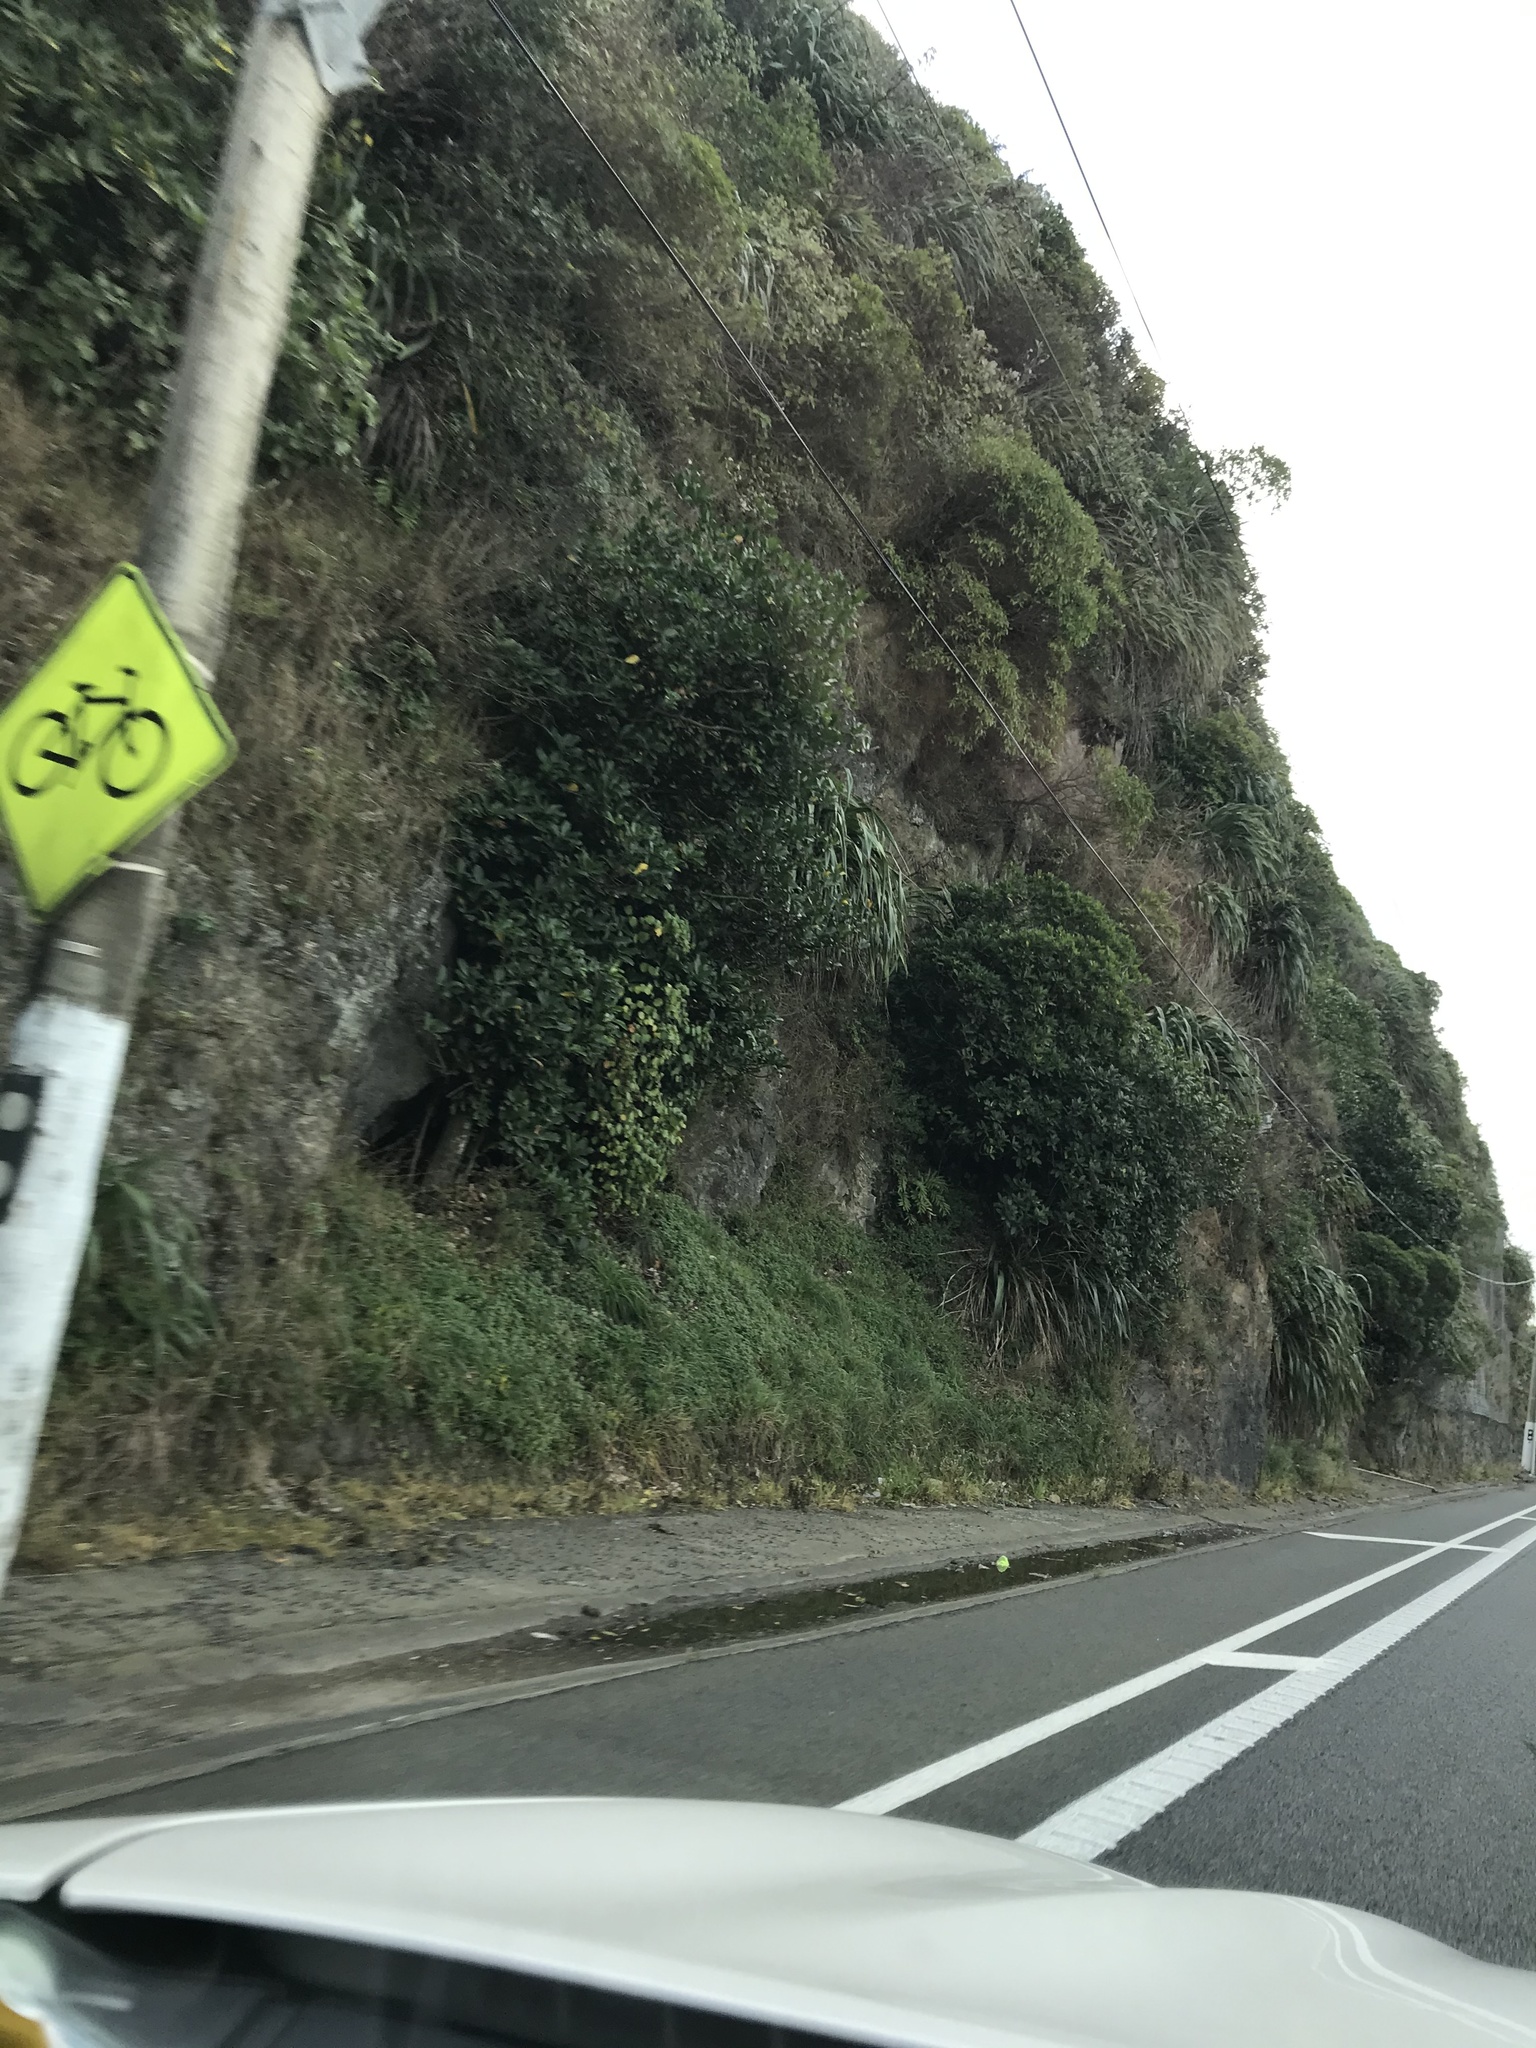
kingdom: Plantae
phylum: Tracheophyta
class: Polypodiopsida
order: Polypodiales
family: Aspleniaceae
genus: Asplenium
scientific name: Asplenium oblongifolium
